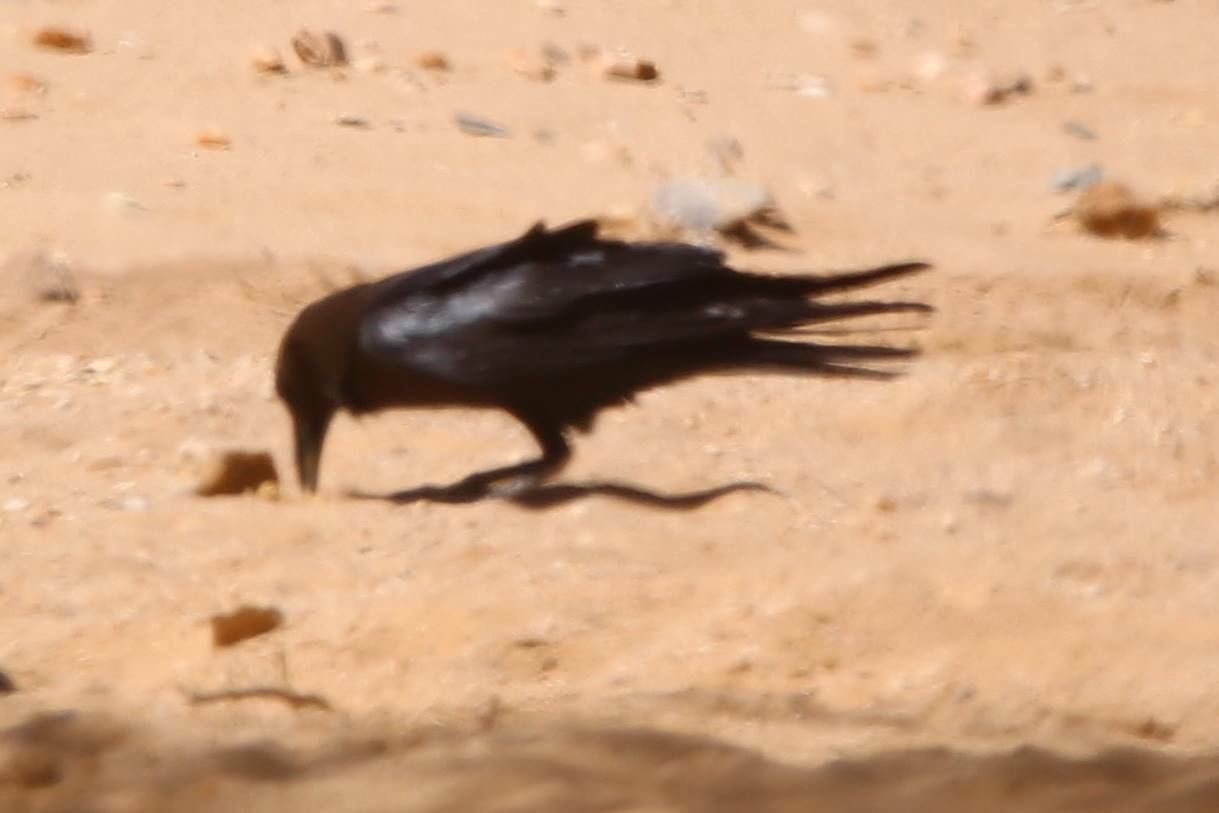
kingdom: Animalia
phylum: Chordata
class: Aves
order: Passeriformes
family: Corvidae
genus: Corvus
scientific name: Corvus ruficollis
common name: Brown-necked raven
